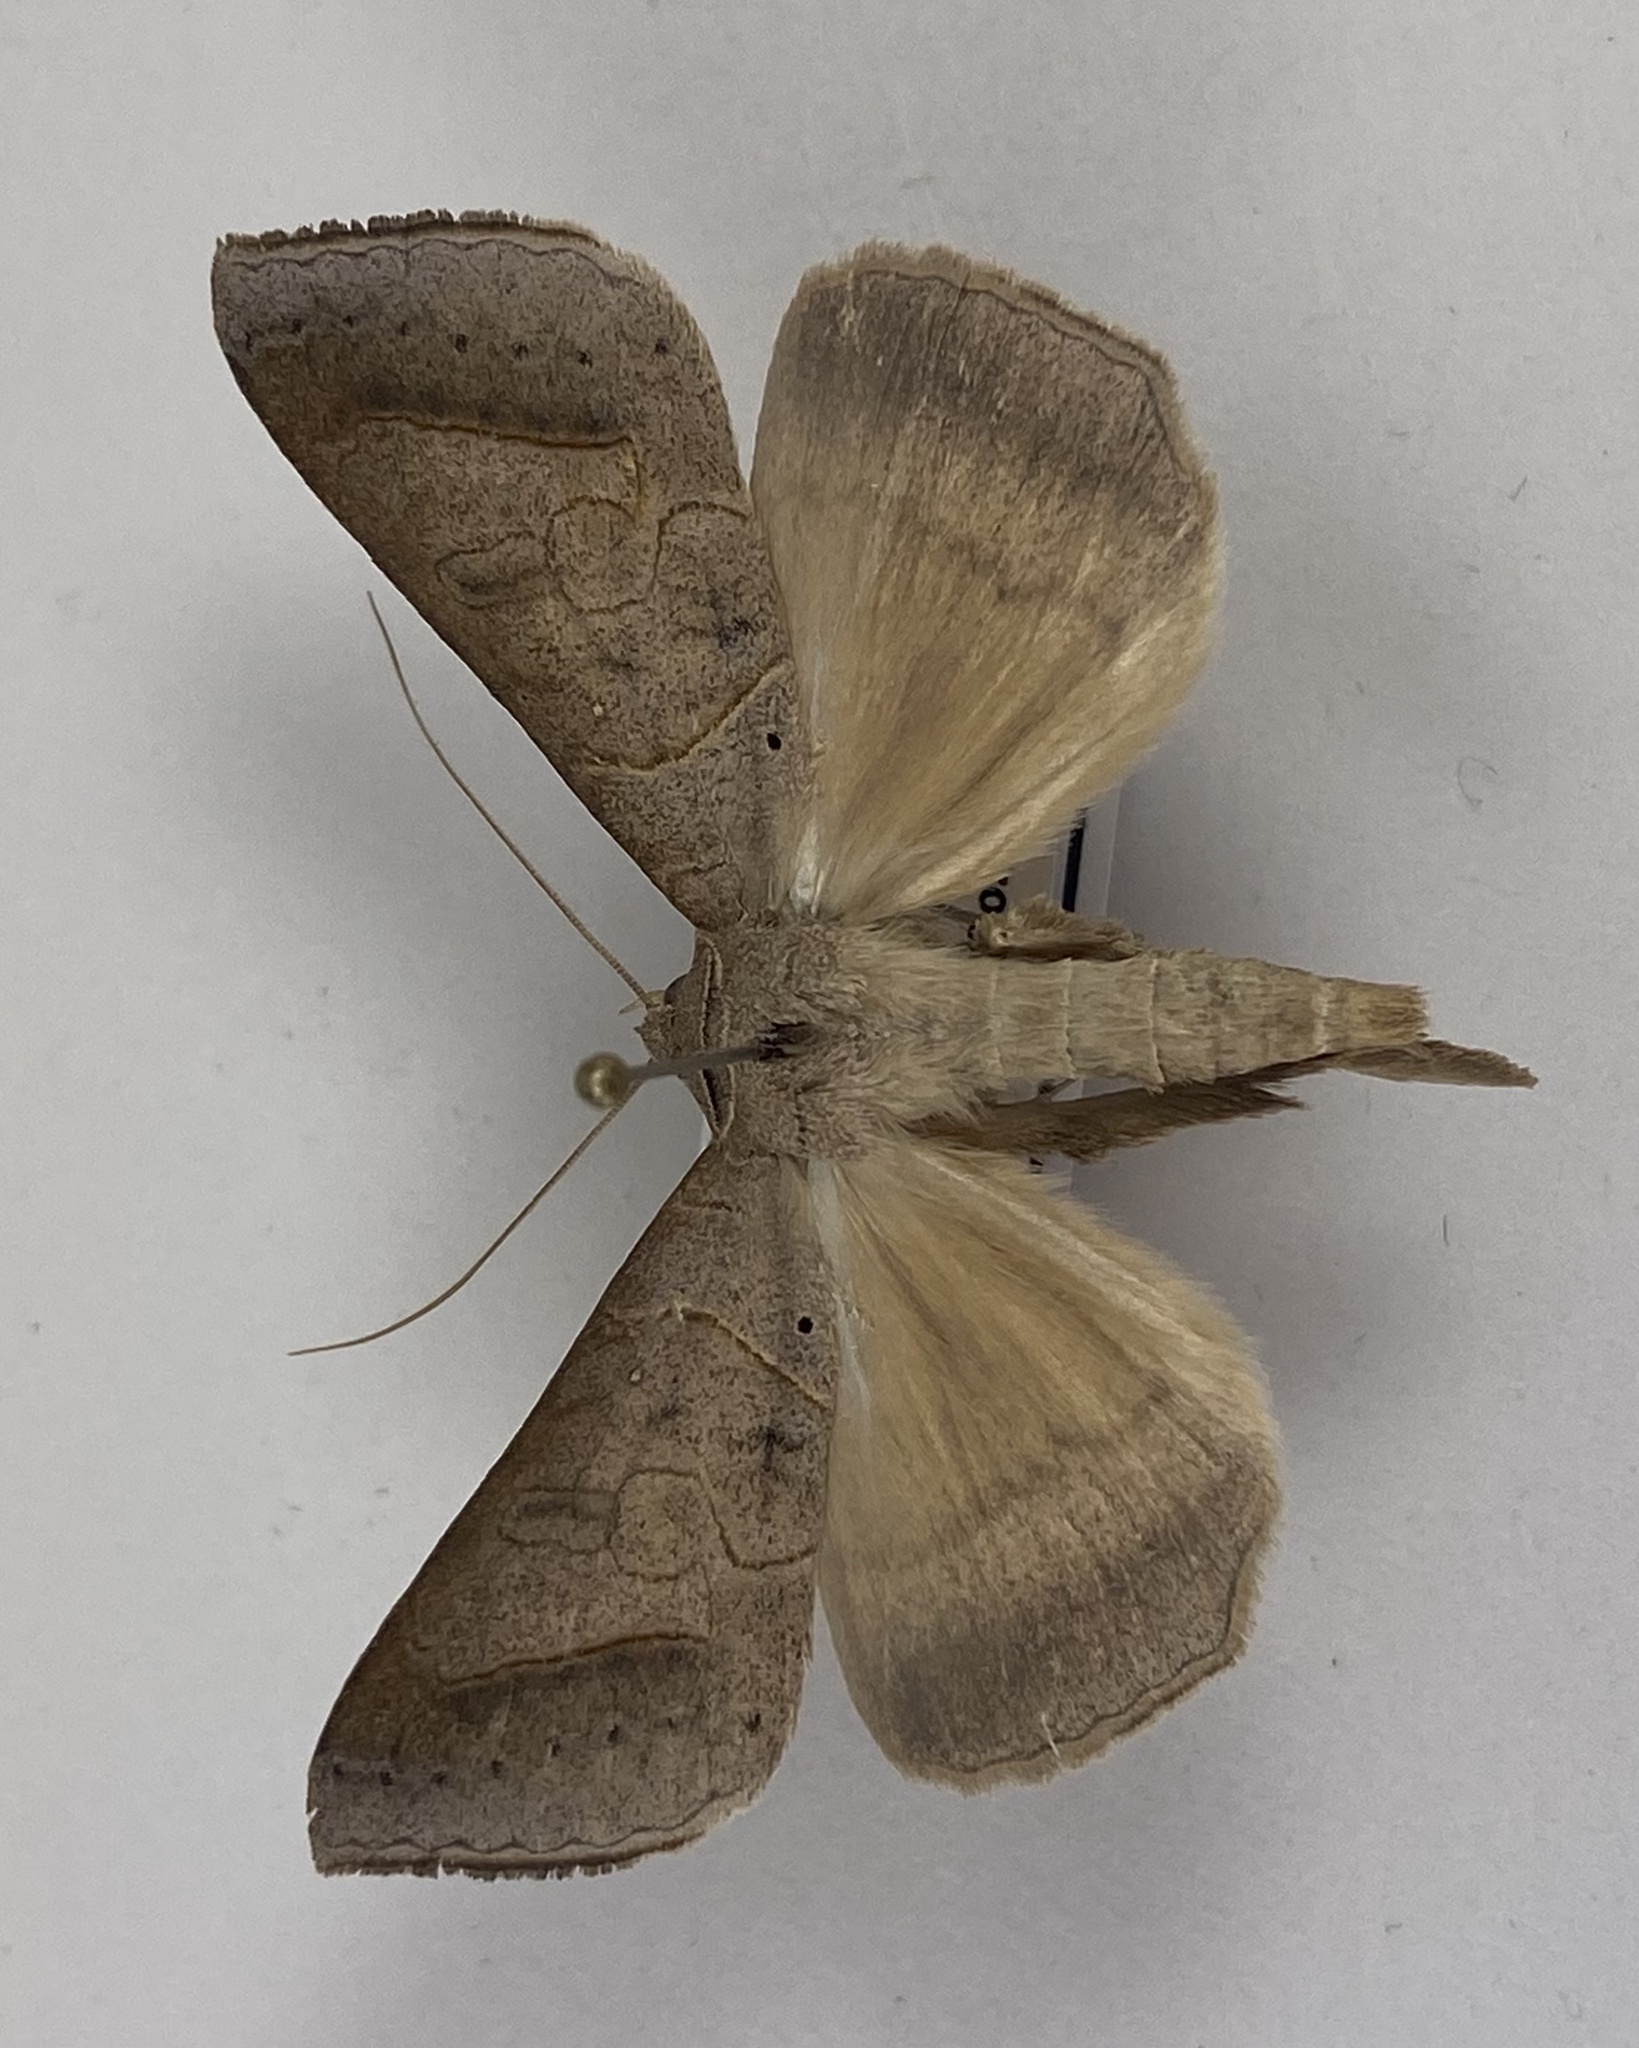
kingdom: Animalia
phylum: Arthropoda
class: Insecta
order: Lepidoptera
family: Erebidae
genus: Mocis
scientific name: Mocis marcida
